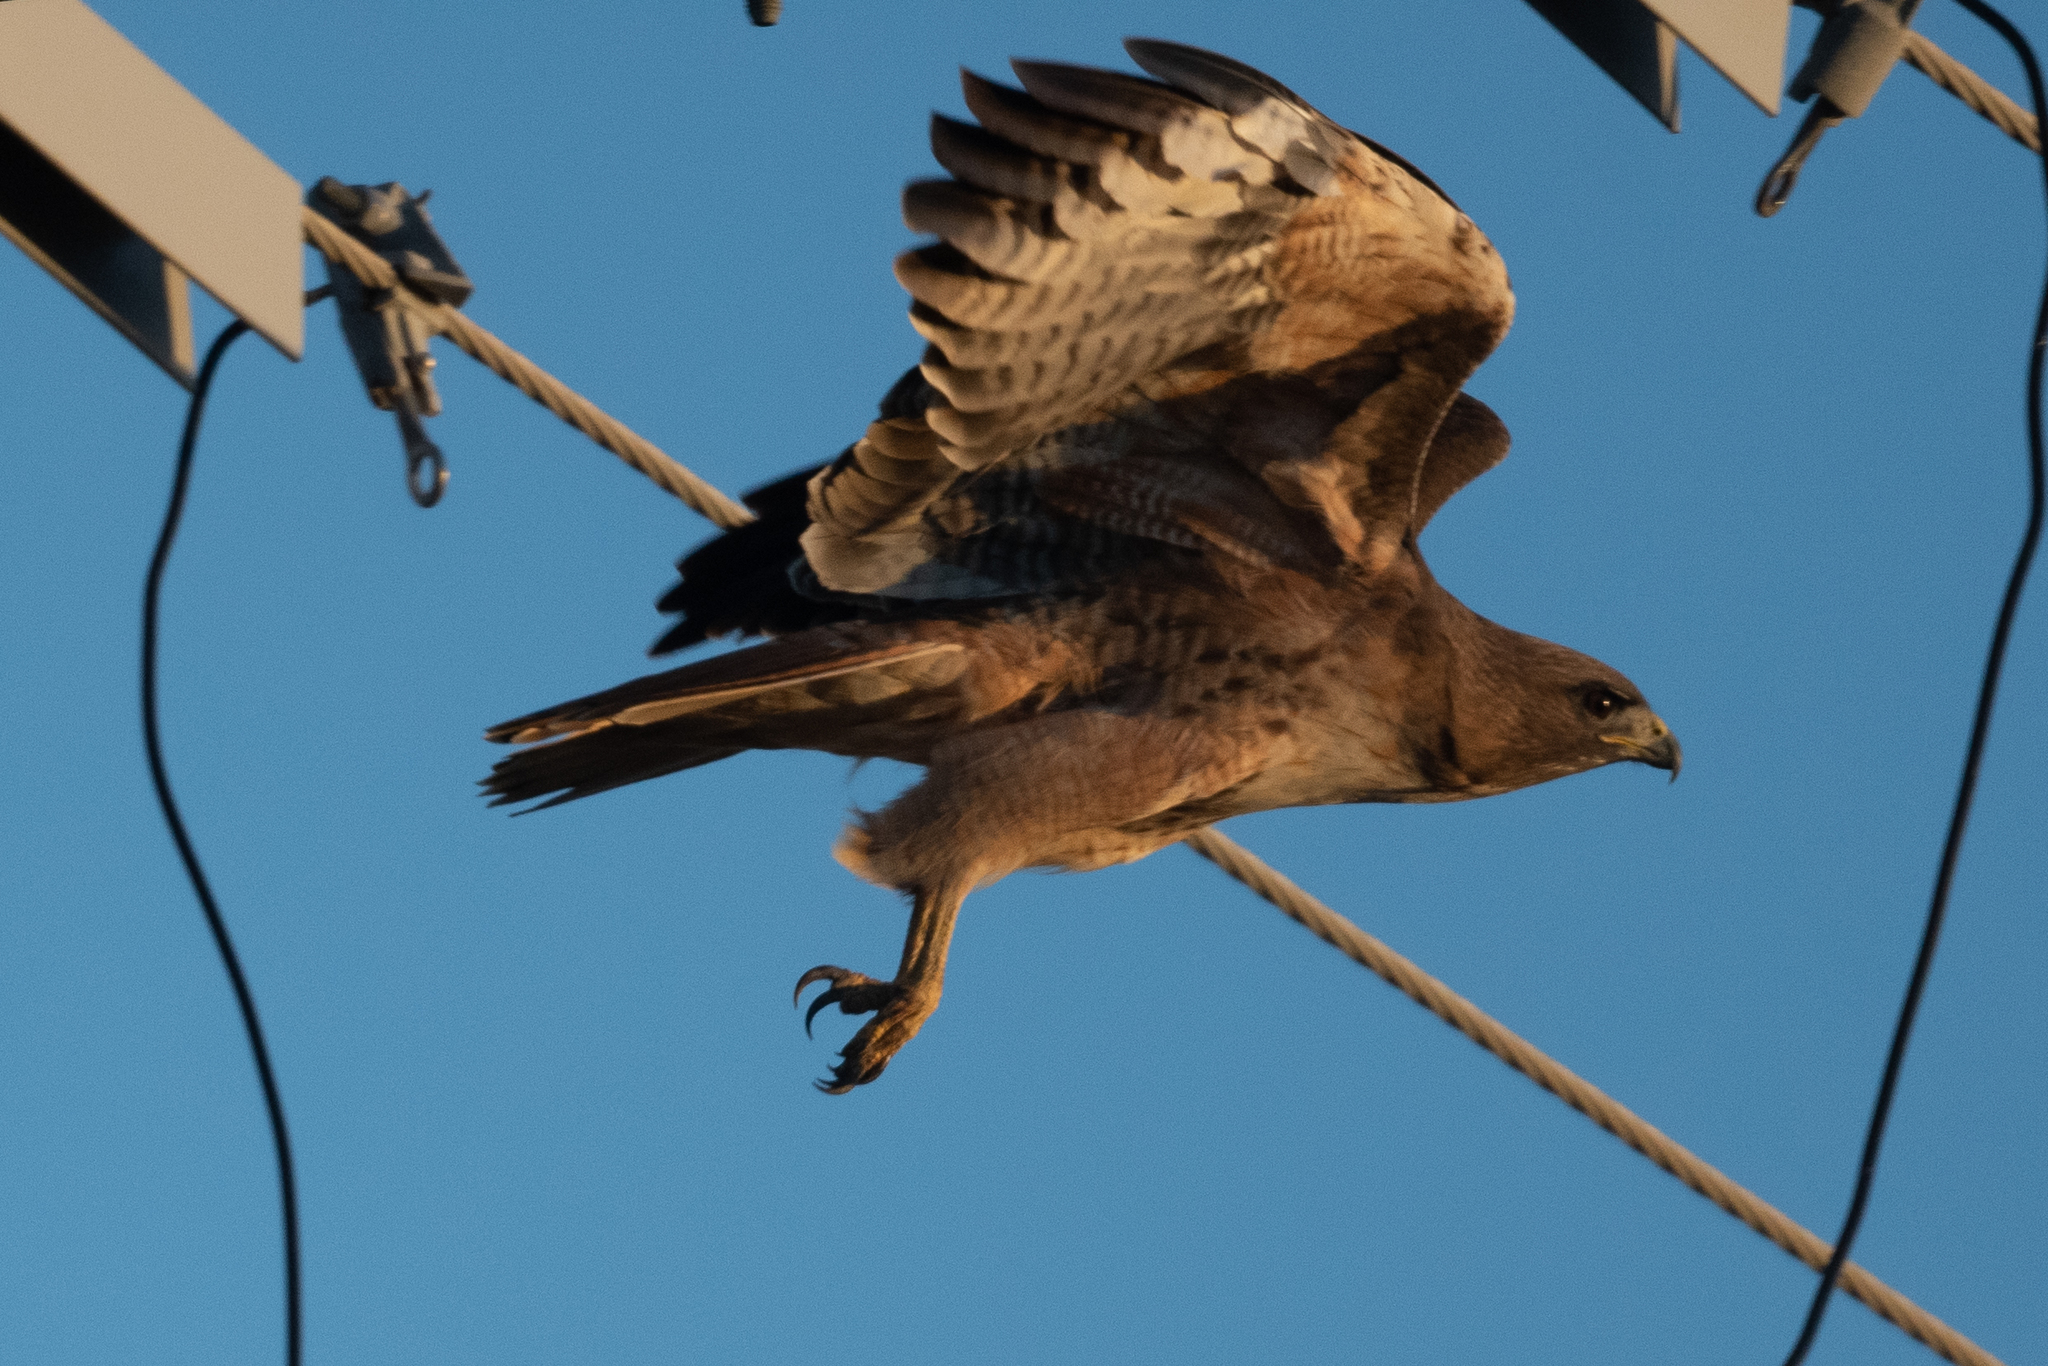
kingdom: Animalia
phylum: Chordata
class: Aves
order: Accipitriformes
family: Accipitridae
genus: Buteo
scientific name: Buteo jamaicensis
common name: Red-tailed hawk
